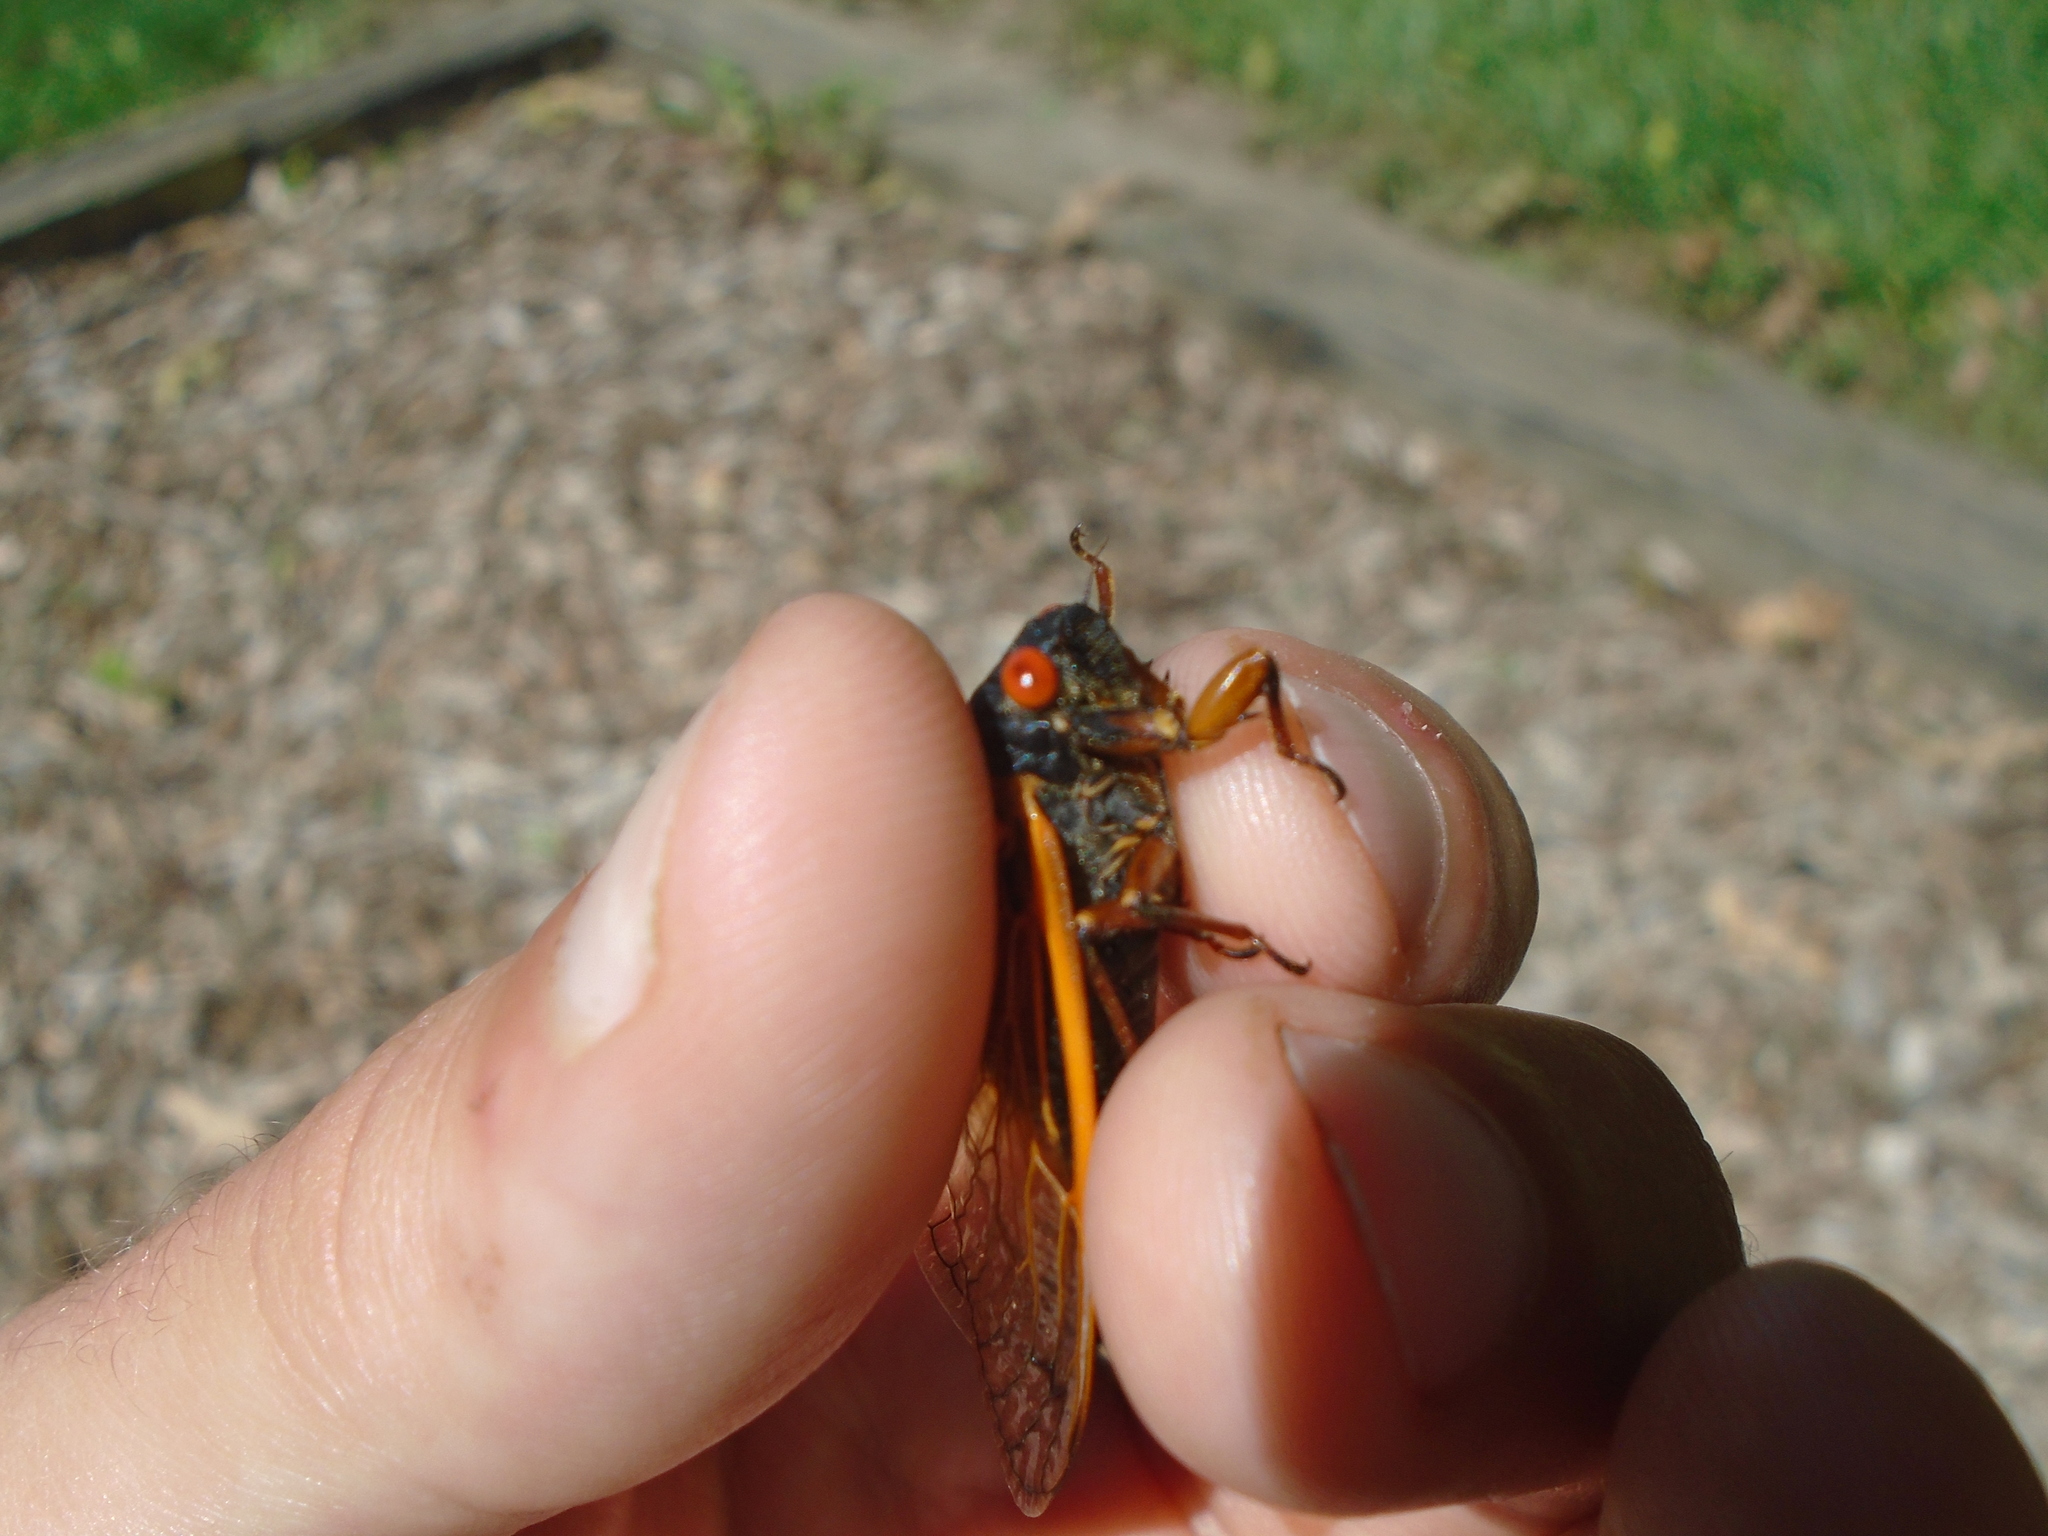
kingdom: Animalia
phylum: Arthropoda
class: Insecta
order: Hemiptera
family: Cicadidae
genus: Magicicada
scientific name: Magicicada cassini
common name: Cassin's 17-year cicada
